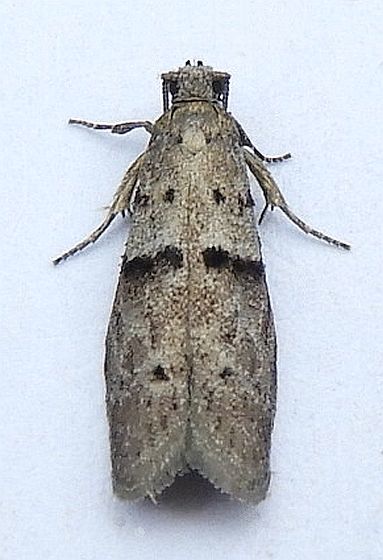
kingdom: Animalia
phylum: Arthropoda
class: Insecta
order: Lepidoptera
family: Urodidae
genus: Wockia
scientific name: Wockia asperipunctella
